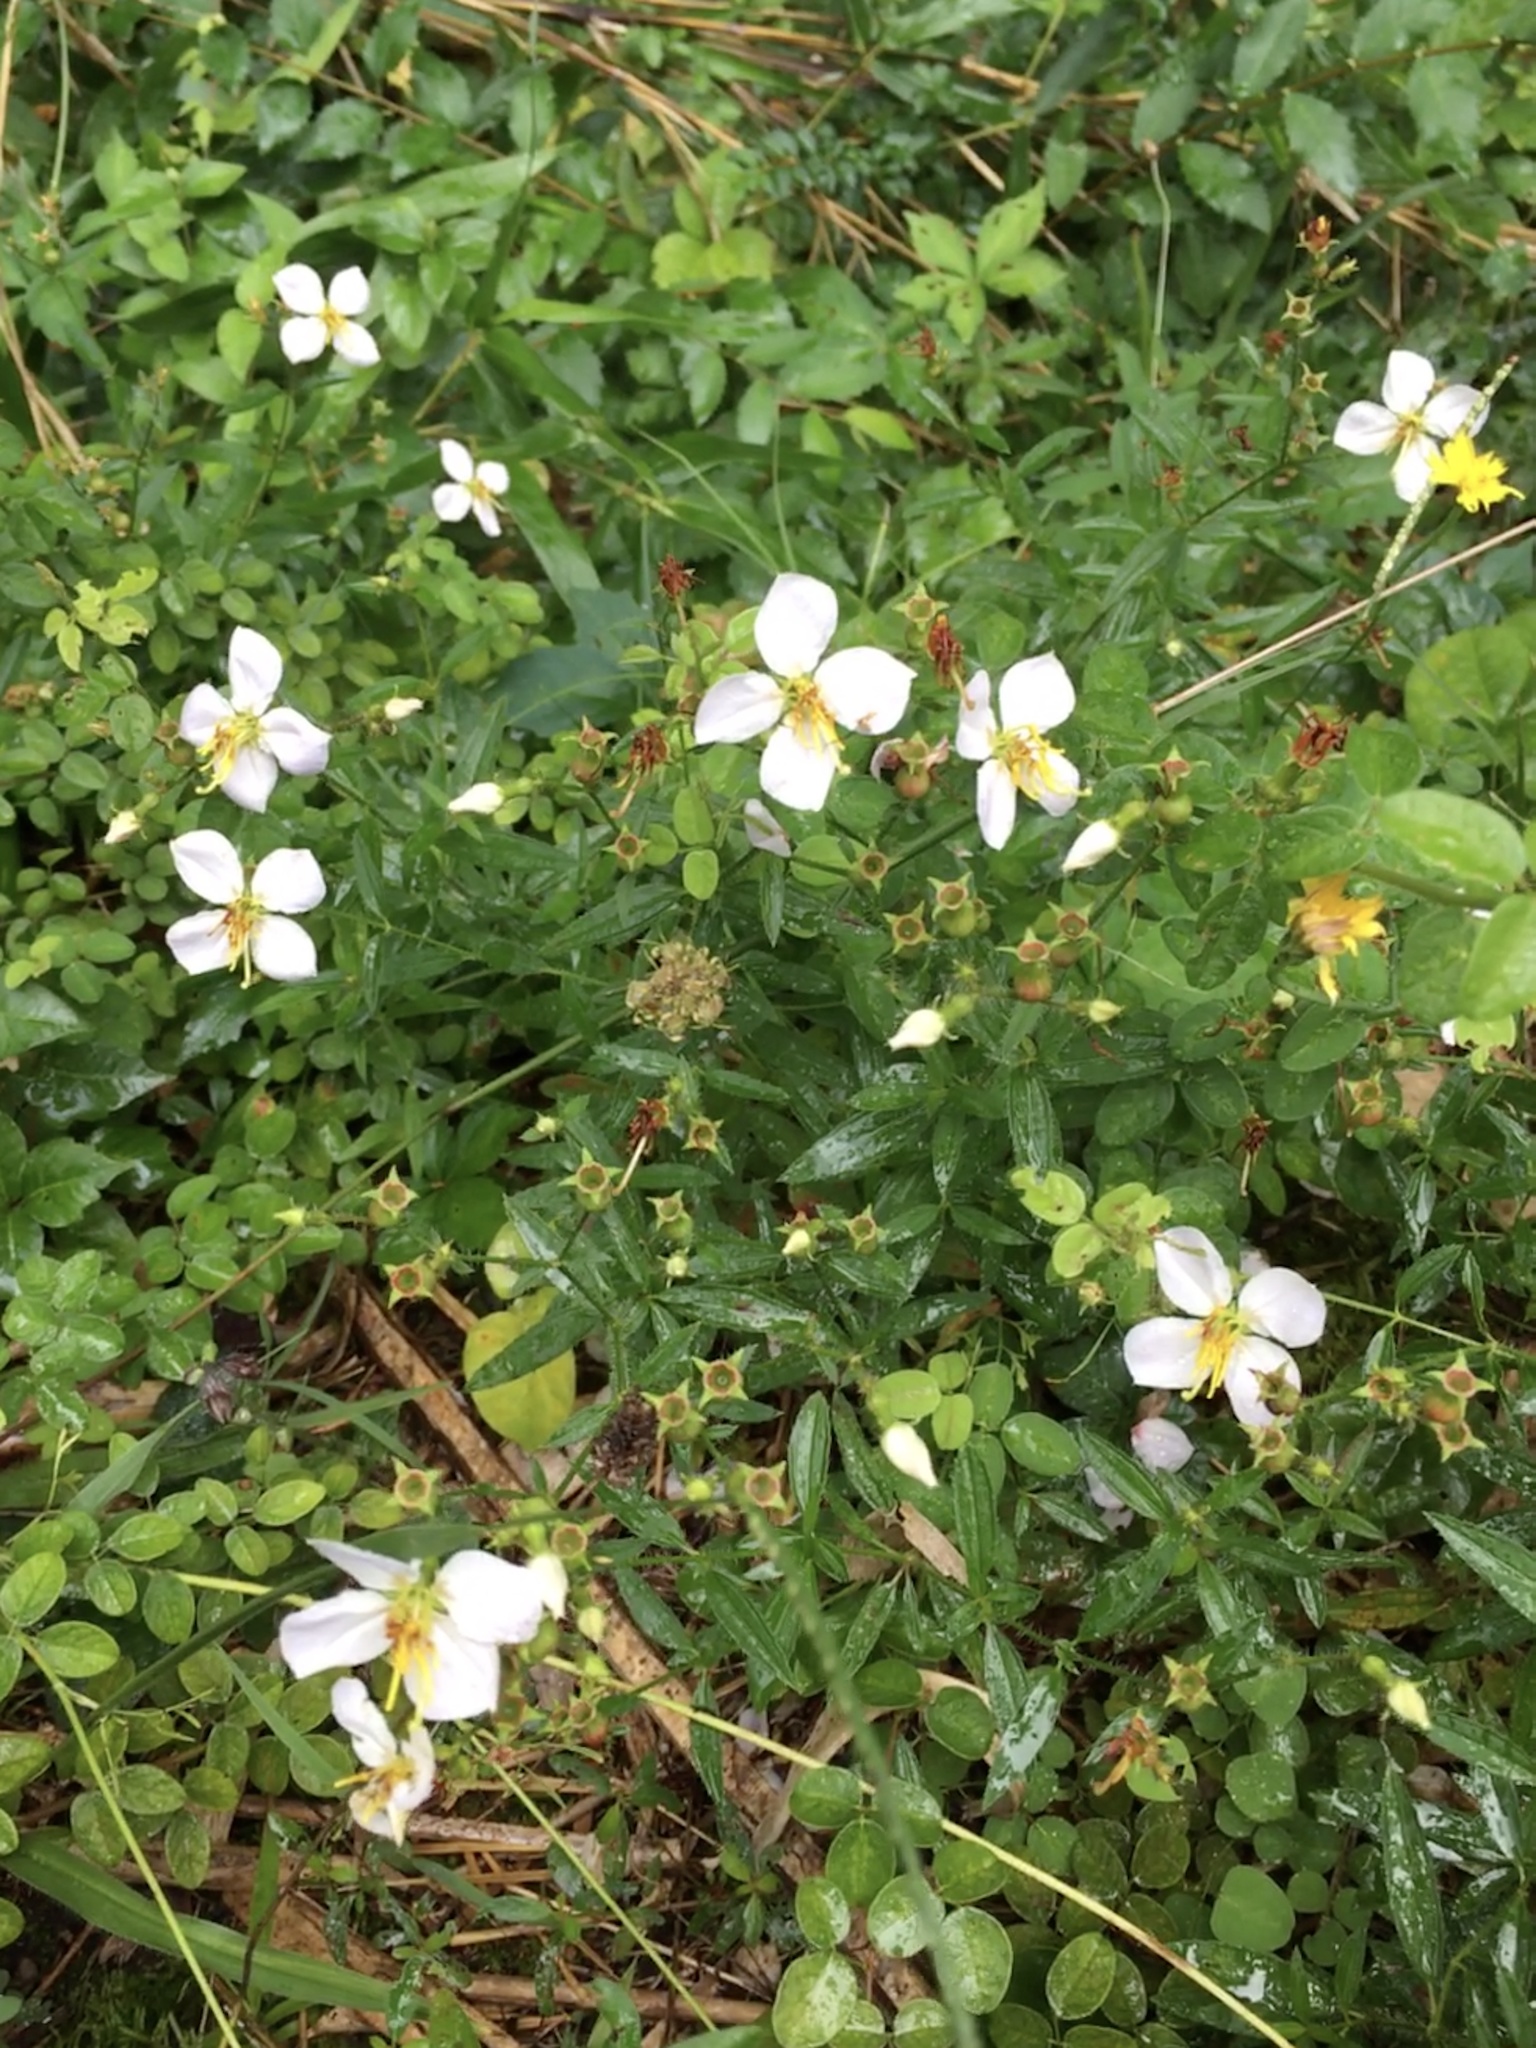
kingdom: Plantae
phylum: Tracheophyta
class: Magnoliopsida
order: Myrtales
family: Melastomataceae
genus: Rhexia
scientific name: Rhexia mariana
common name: Dull meadow-pitcher
